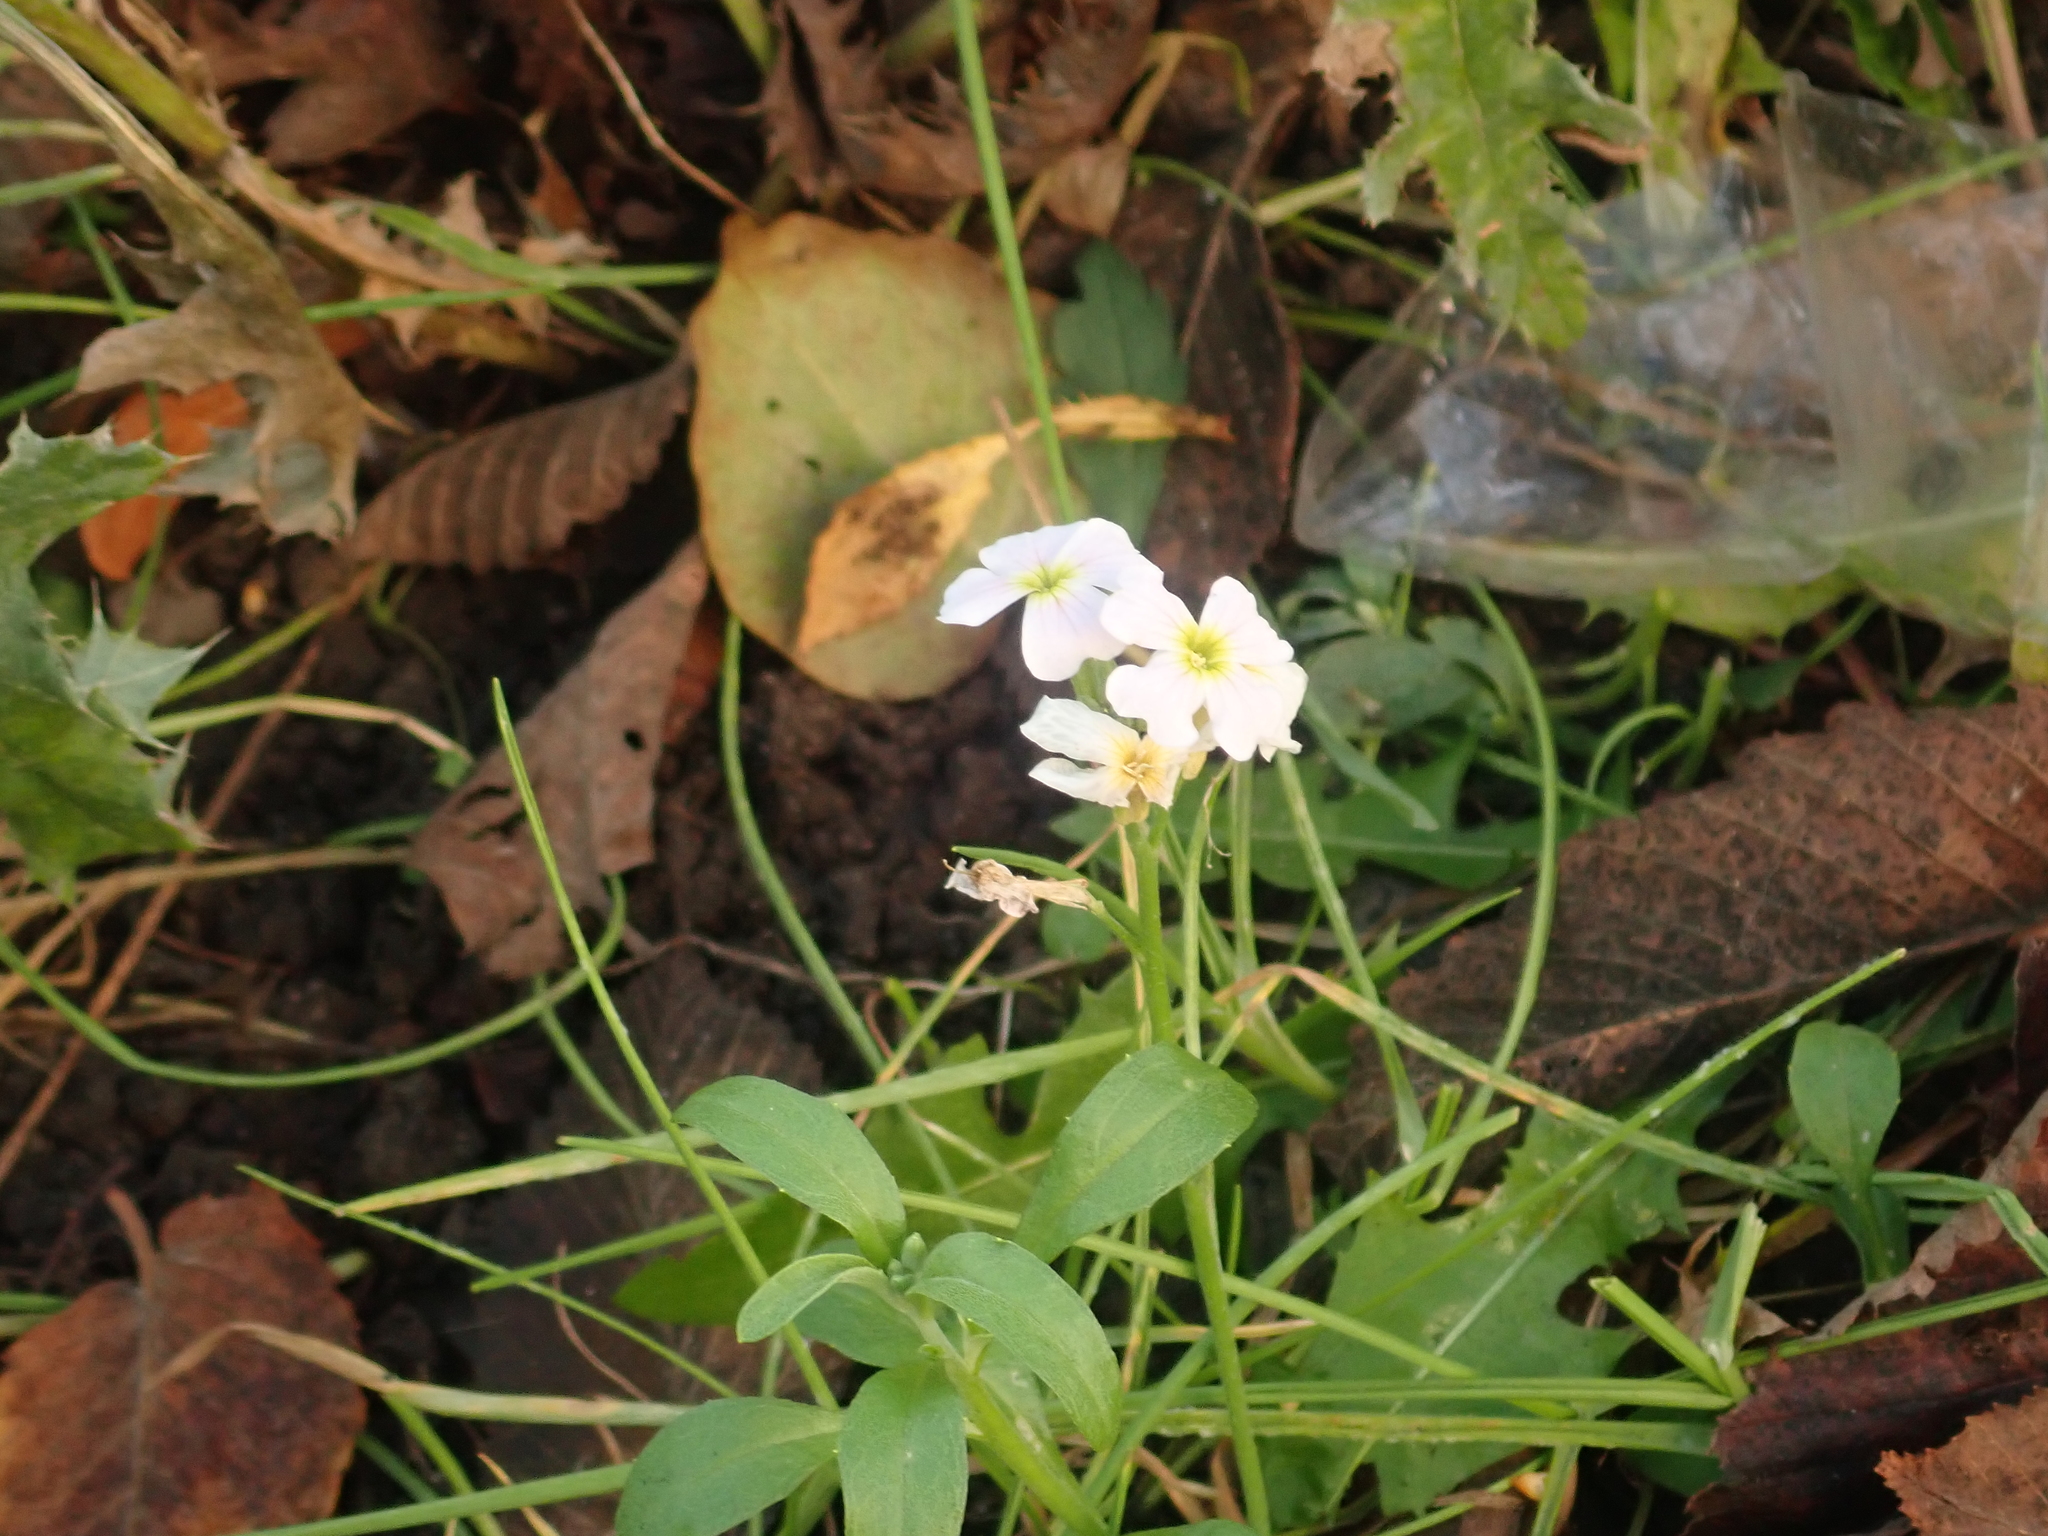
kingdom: Plantae
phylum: Tracheophyta
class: Magnoliopsida
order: Brassicales
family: Brassicaceae
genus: Malcolmia
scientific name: Malcolmia maritima
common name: Virginia stock
